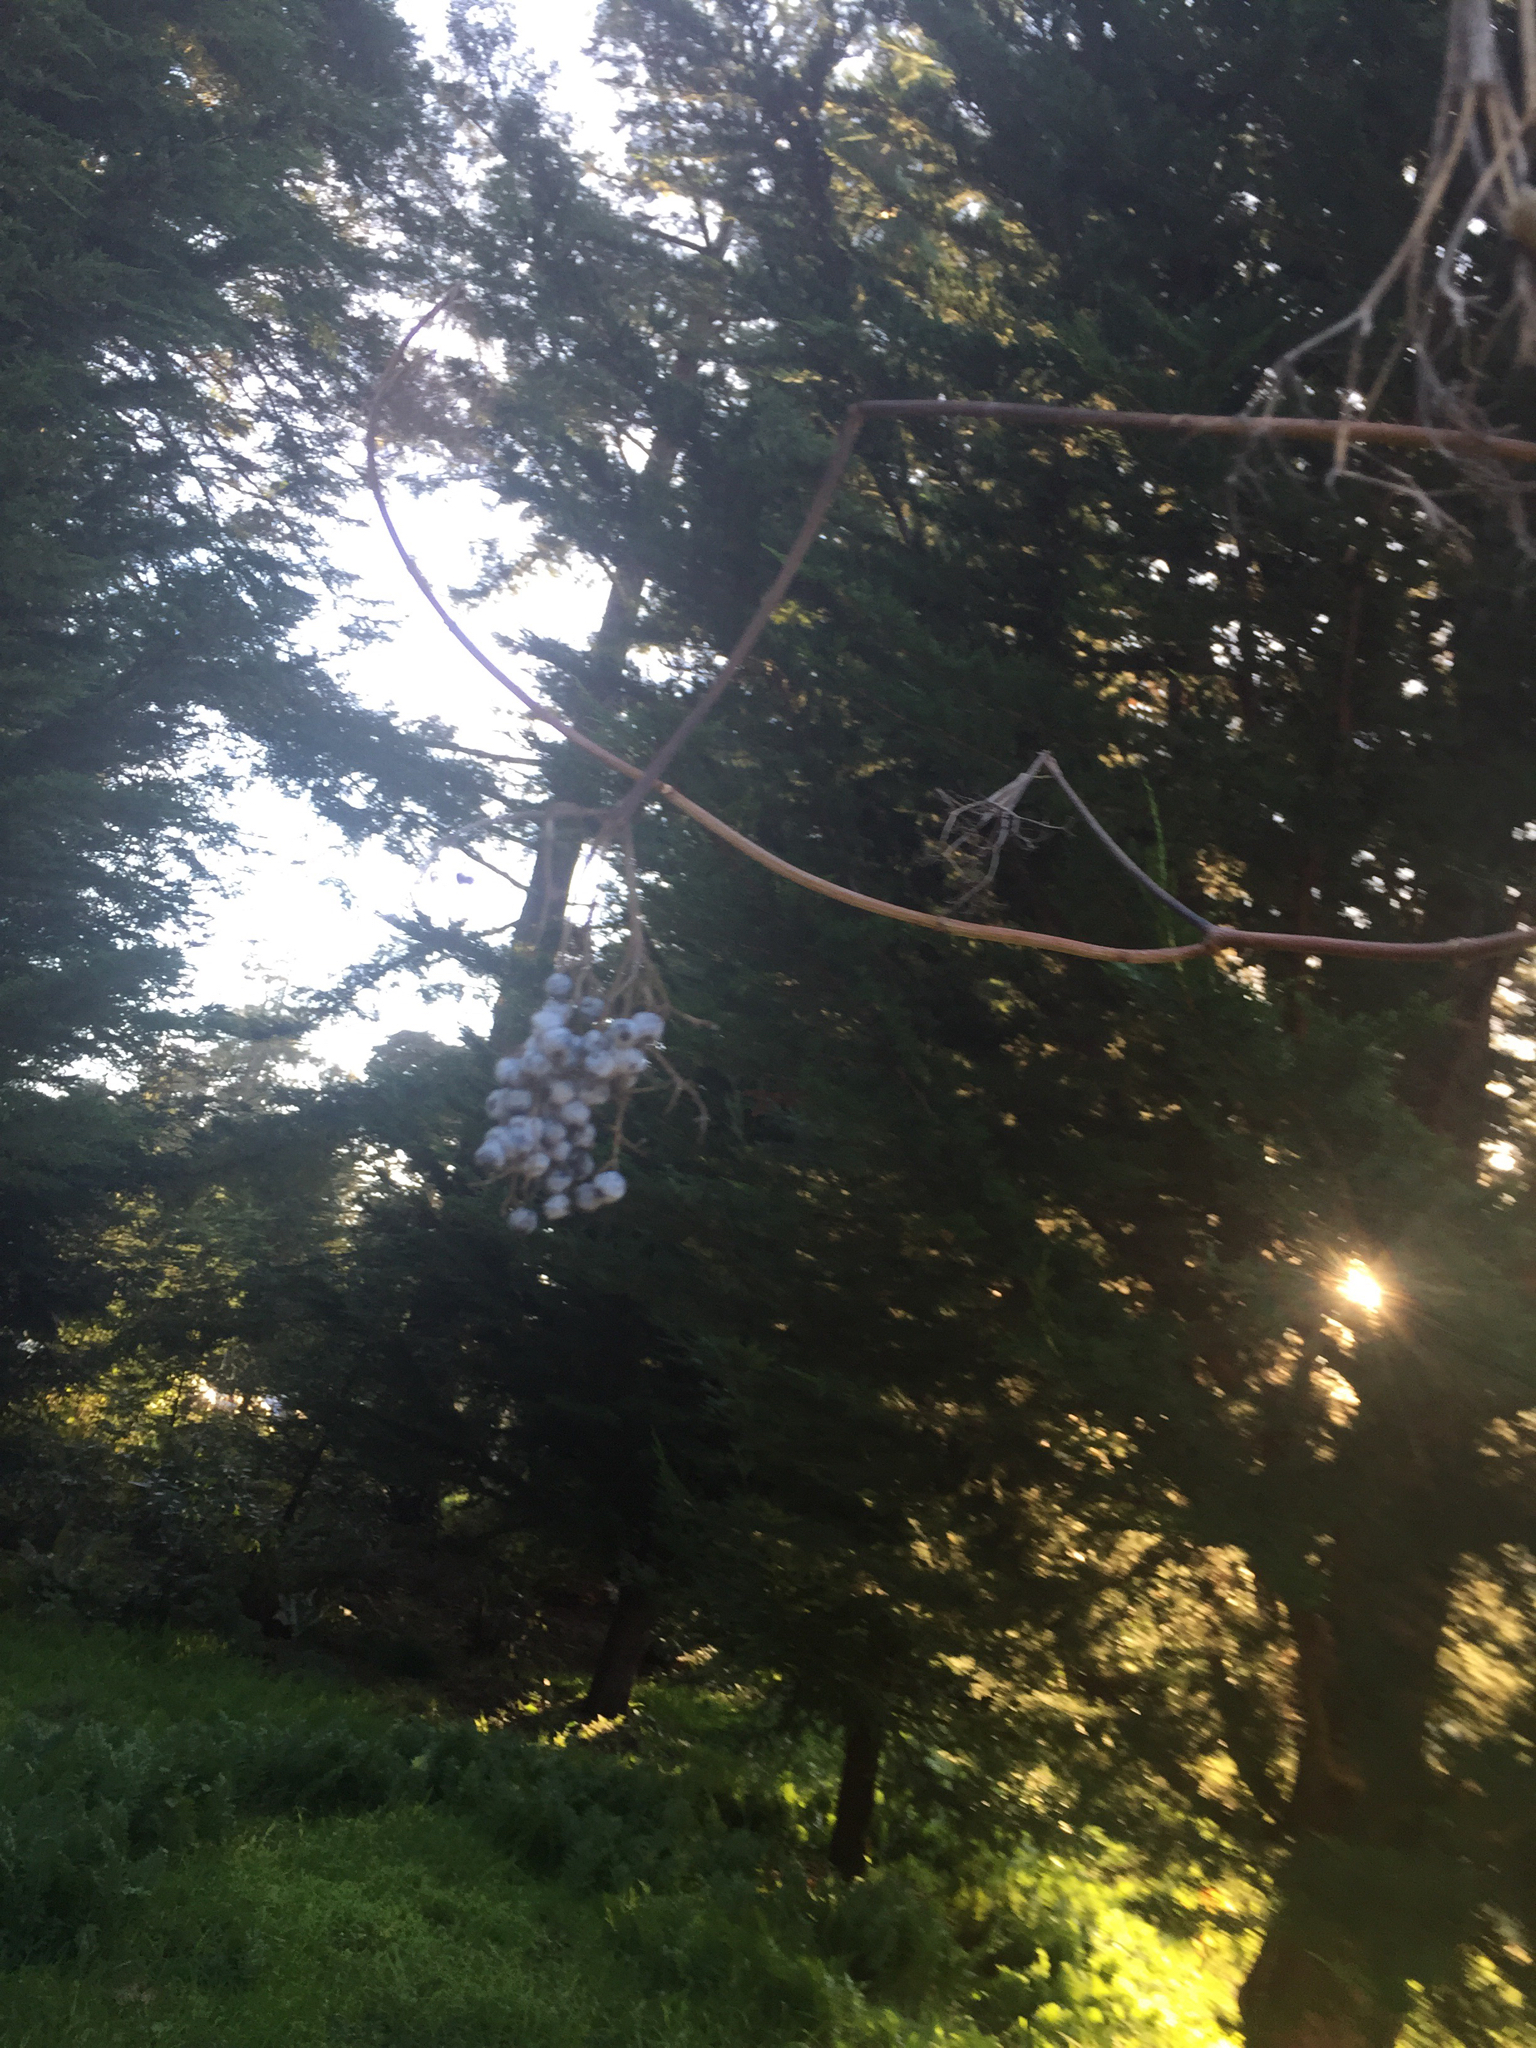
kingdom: Plantae
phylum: Tracheophyta
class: Magnoliopsida
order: Dipsacales
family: Viburnaceae
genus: Sambucus
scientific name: Sambucus cerulea
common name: Blue elder
